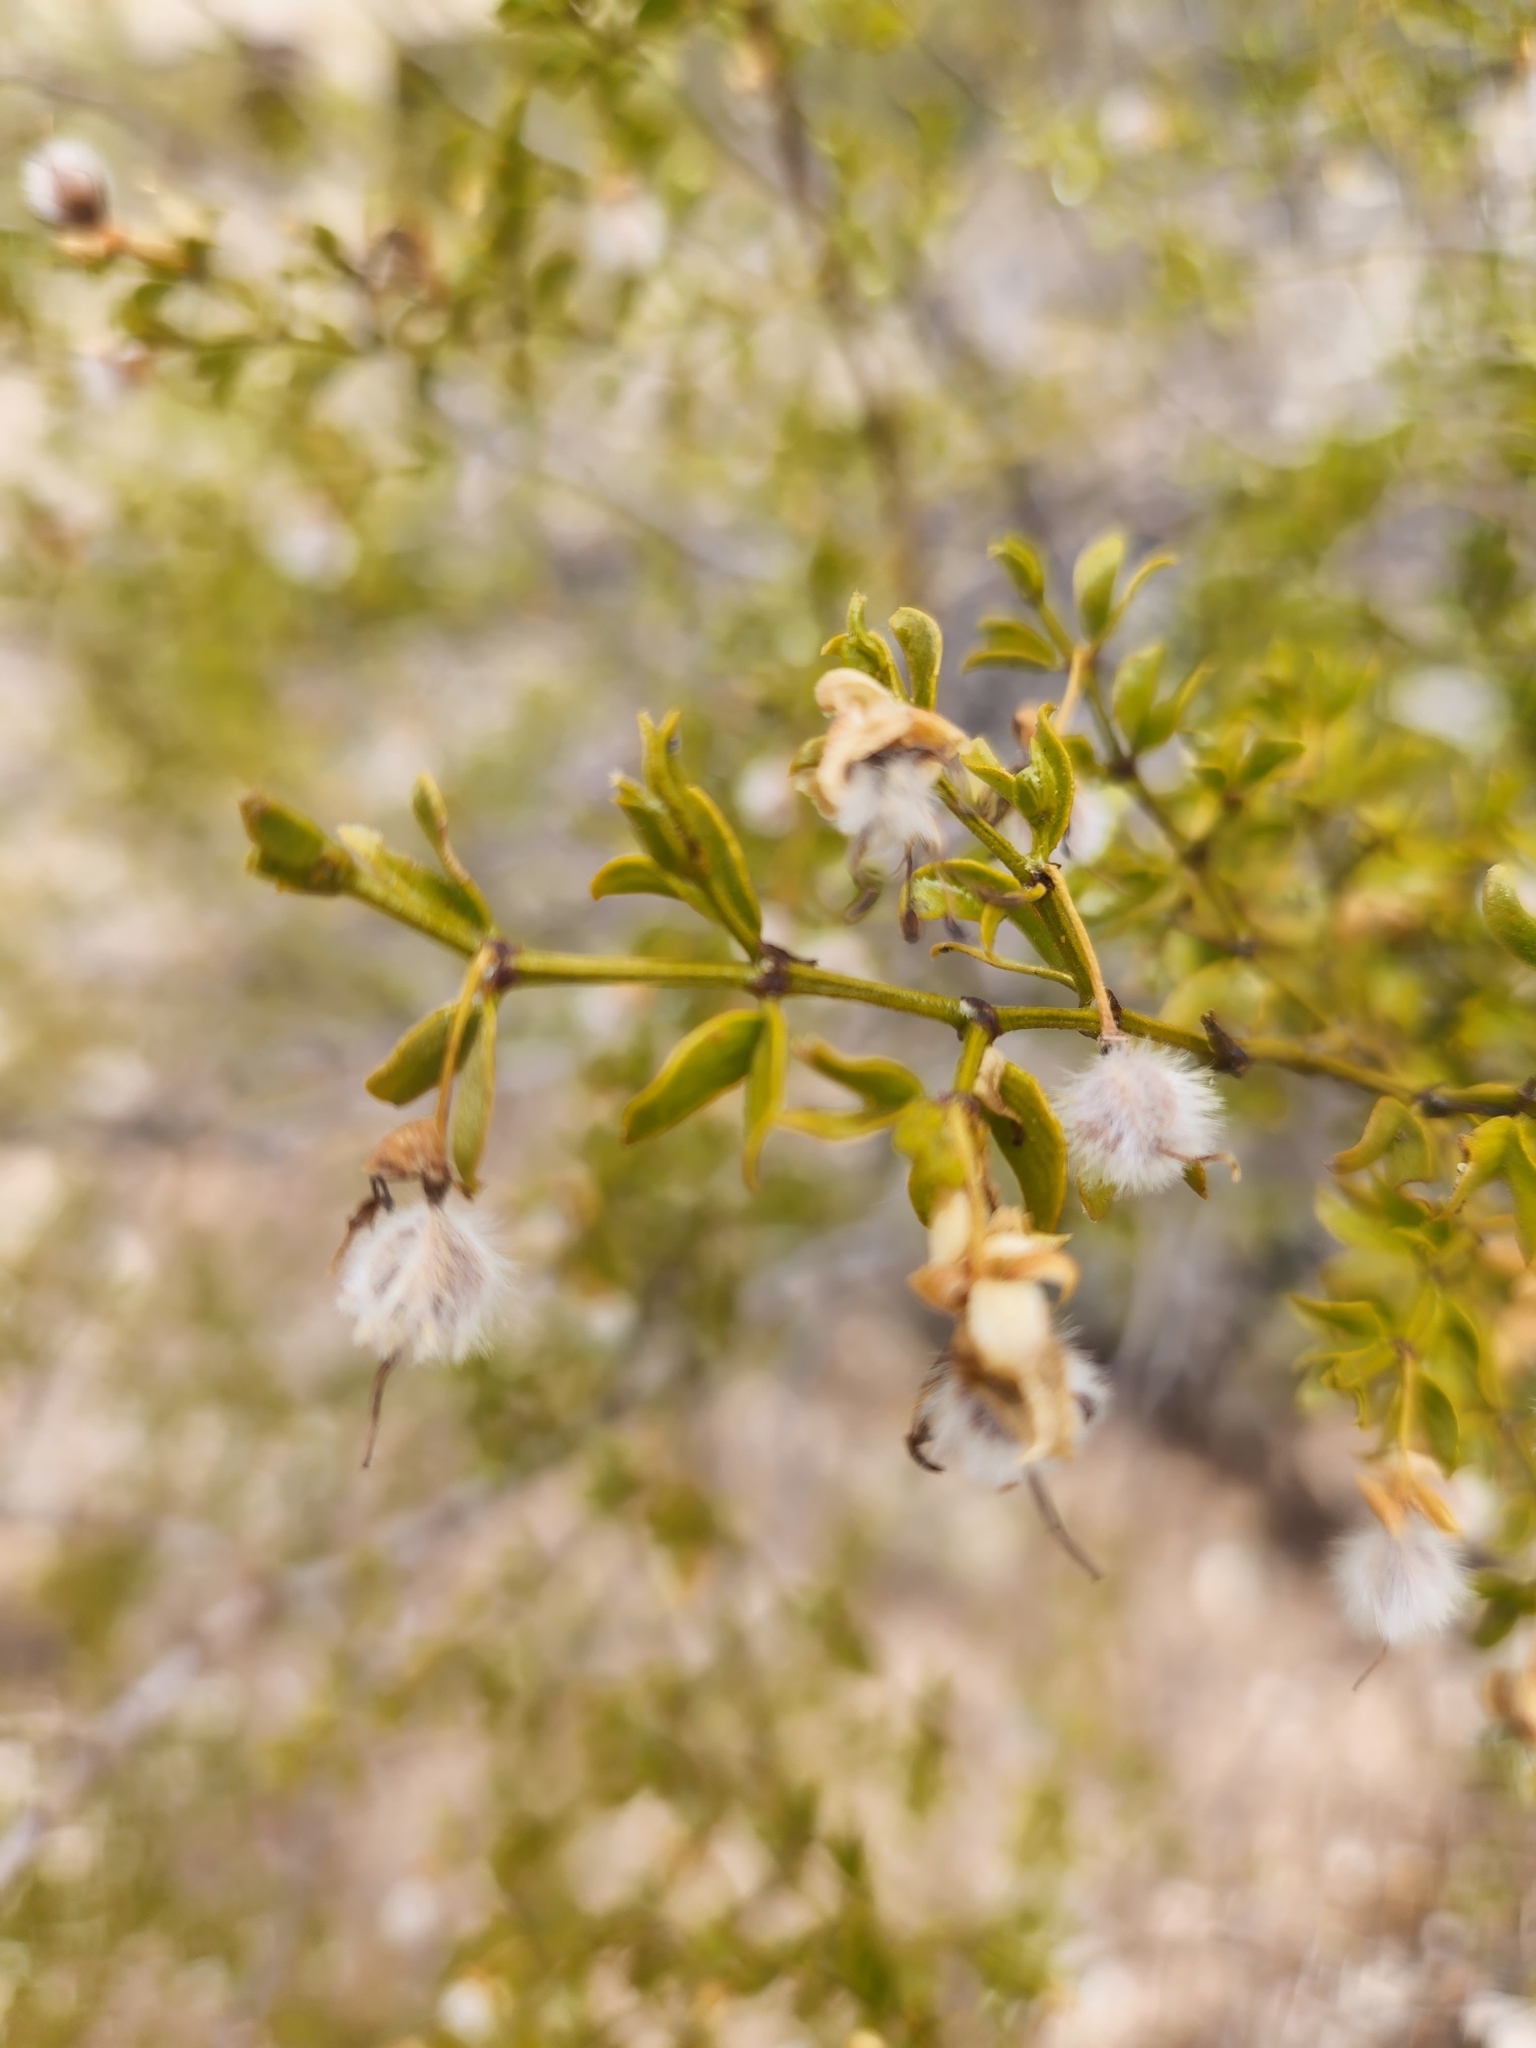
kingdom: Plantae
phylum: Tracheophyta
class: Magnoliopsida
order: Zygophyllales
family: Zygophyllaceae
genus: Larrea
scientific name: Larrea tridentata
